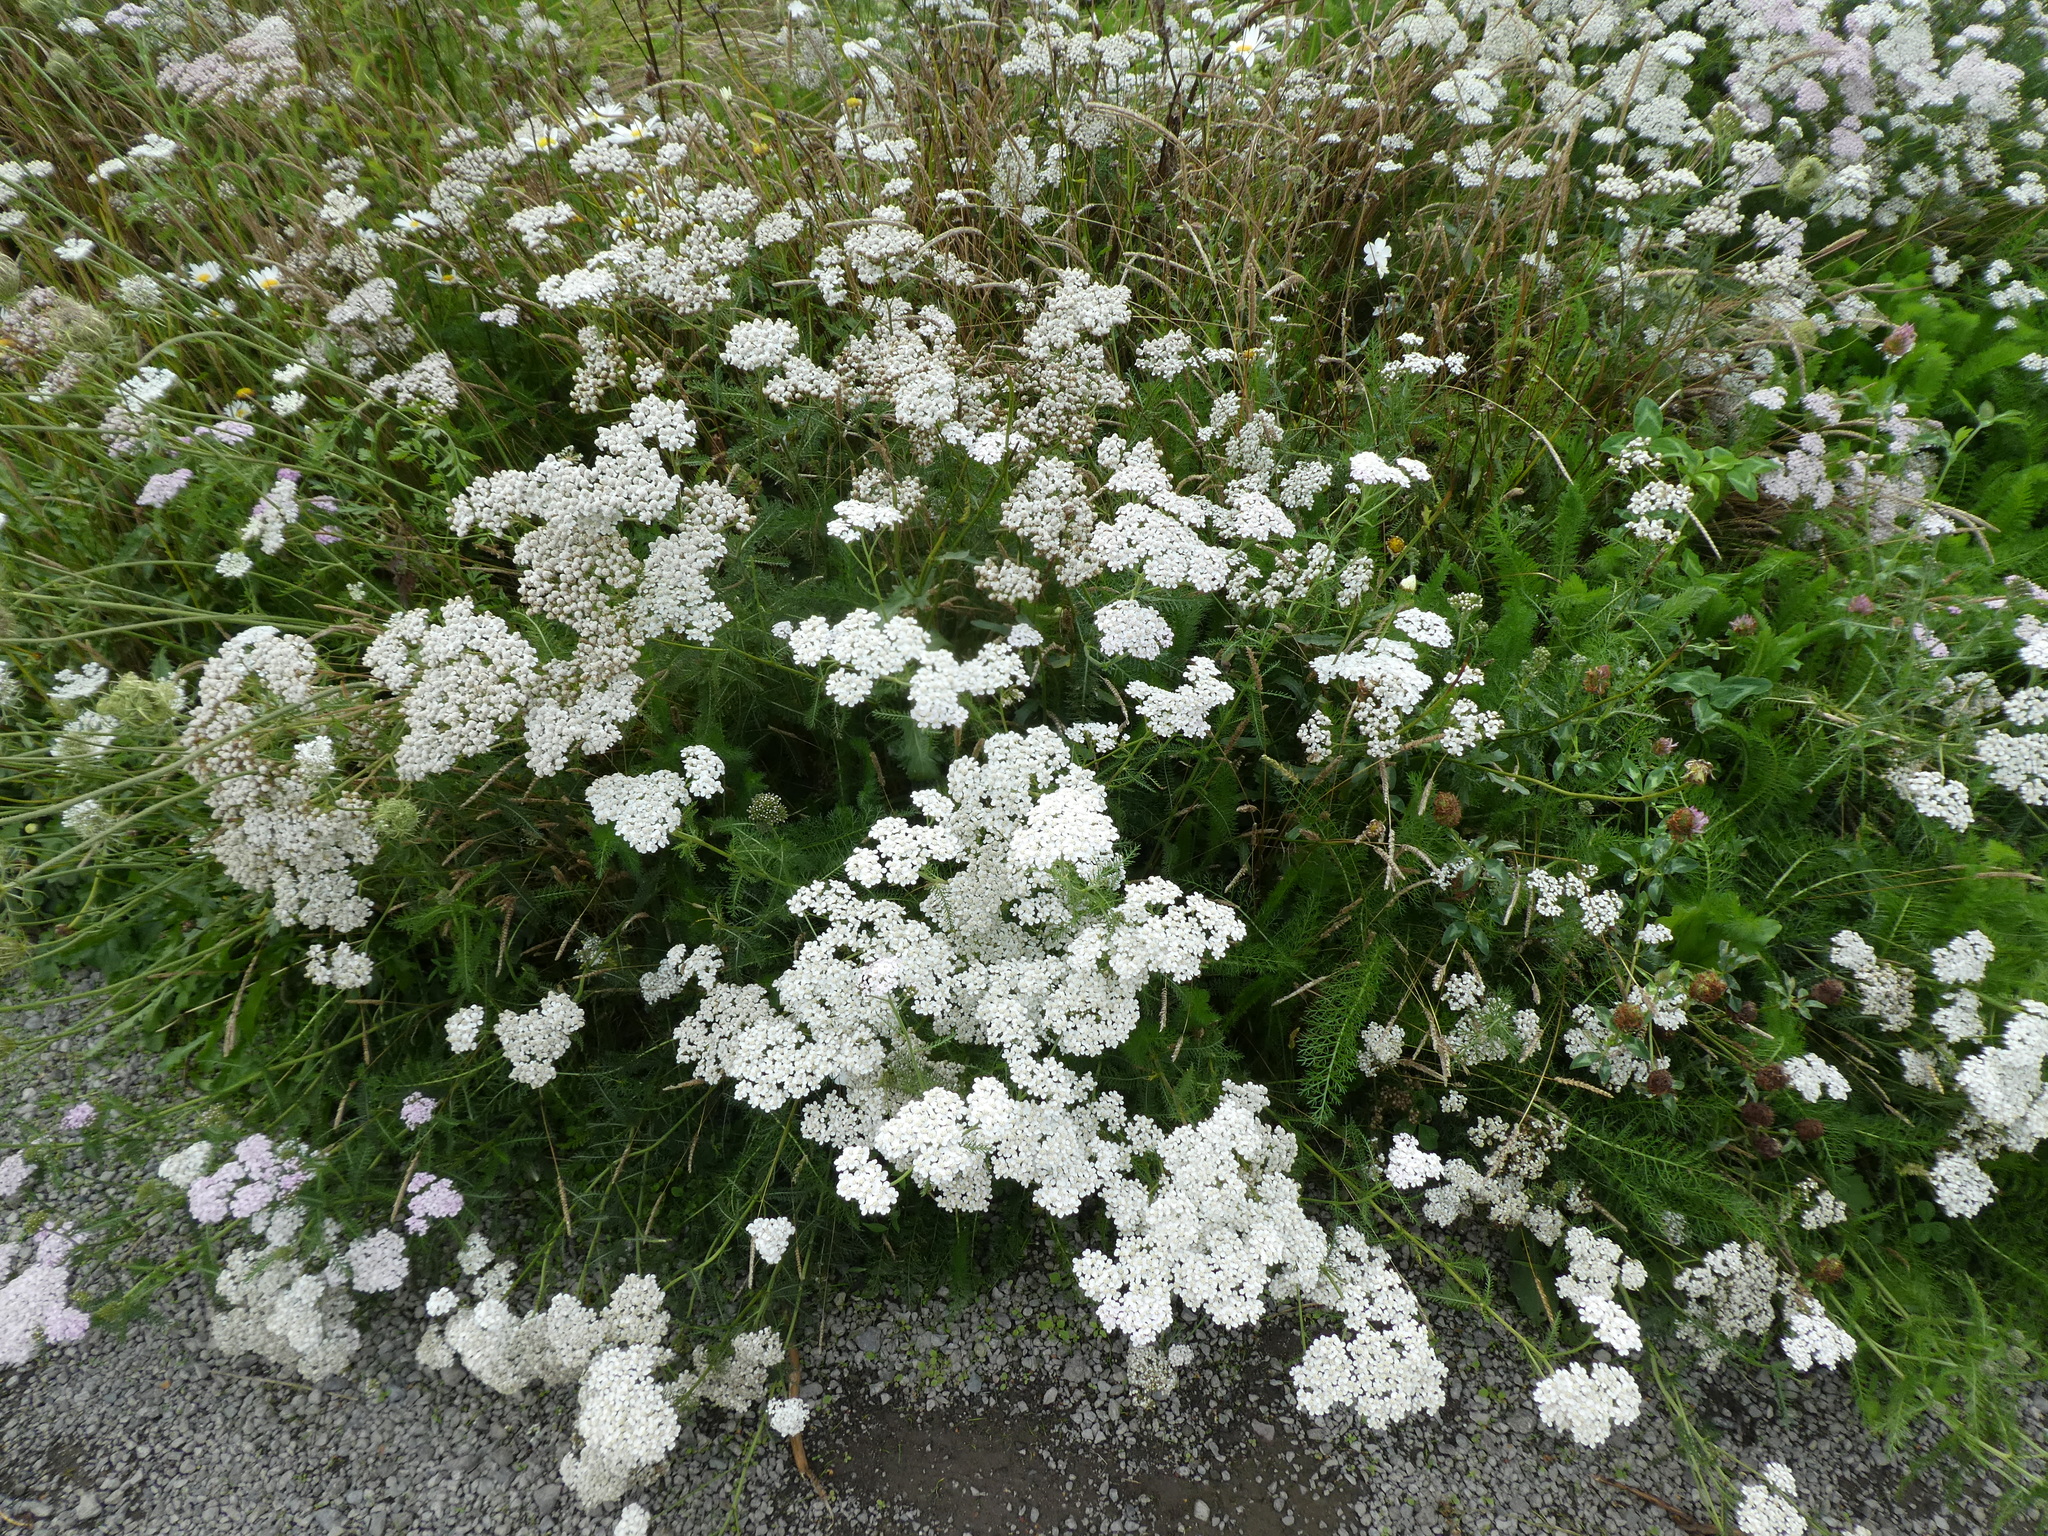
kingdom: Plantae
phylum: Tracheophyta
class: Magnoliopsida
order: Asterales
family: Asteraceae
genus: Achillea
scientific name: Achillea millefolium
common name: Yarrow
